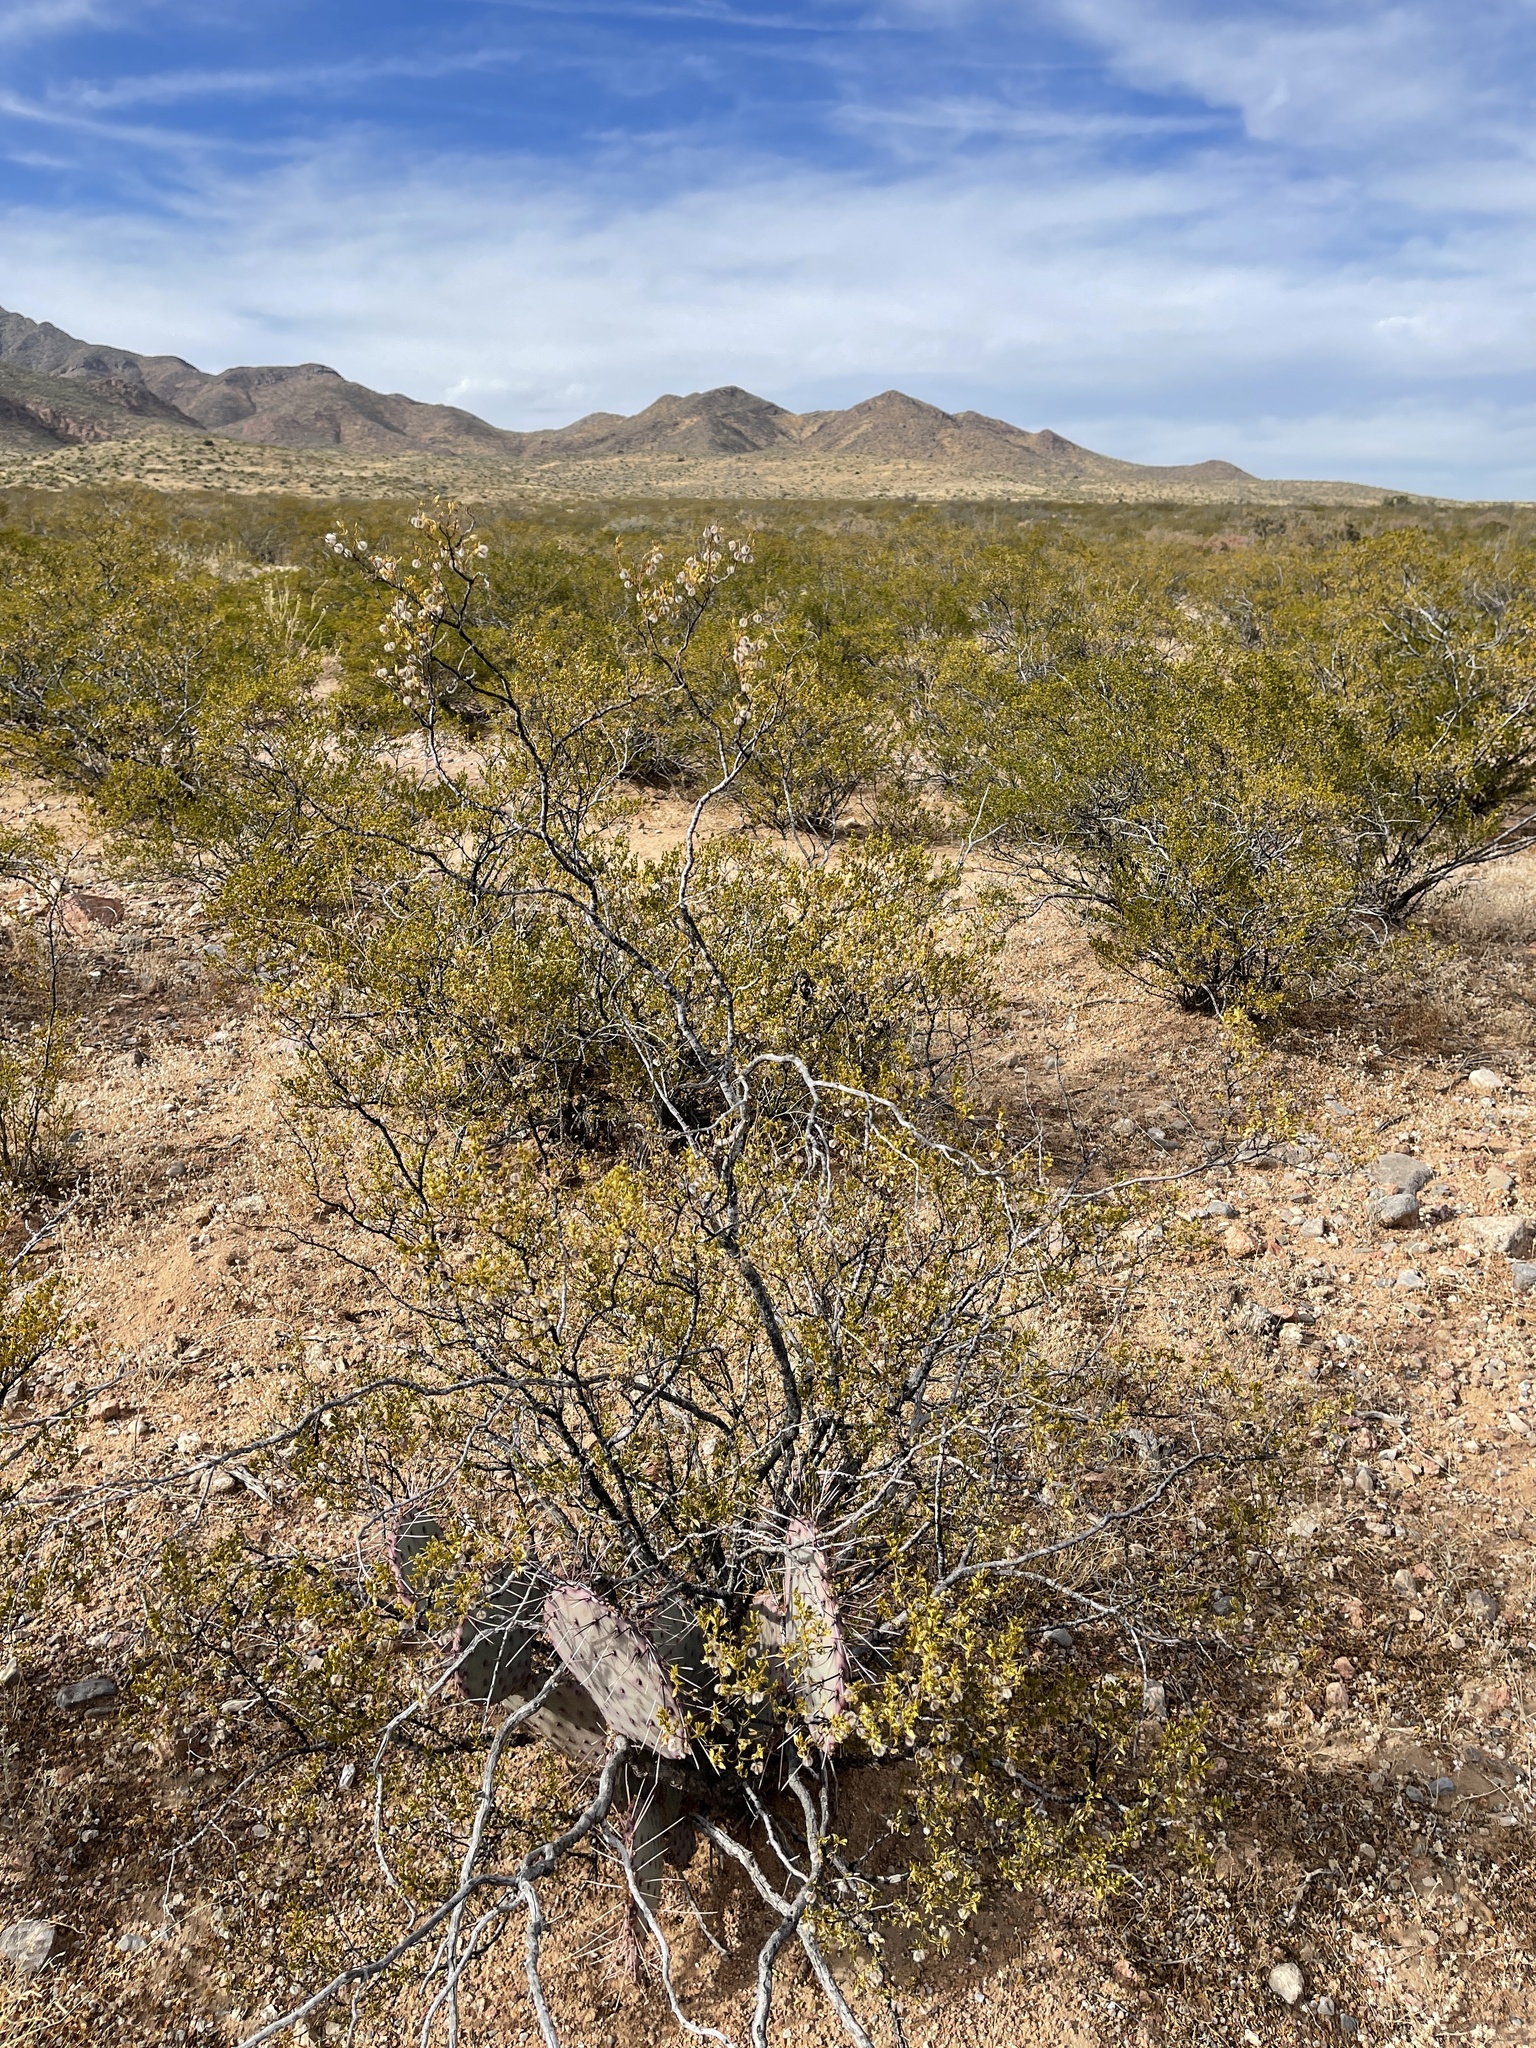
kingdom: Plantae
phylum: Tracheophyta
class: Magnoliopsida
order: Zygophyllales
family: Zygophyllaceae
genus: Larrea
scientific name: Larrea tridentata
